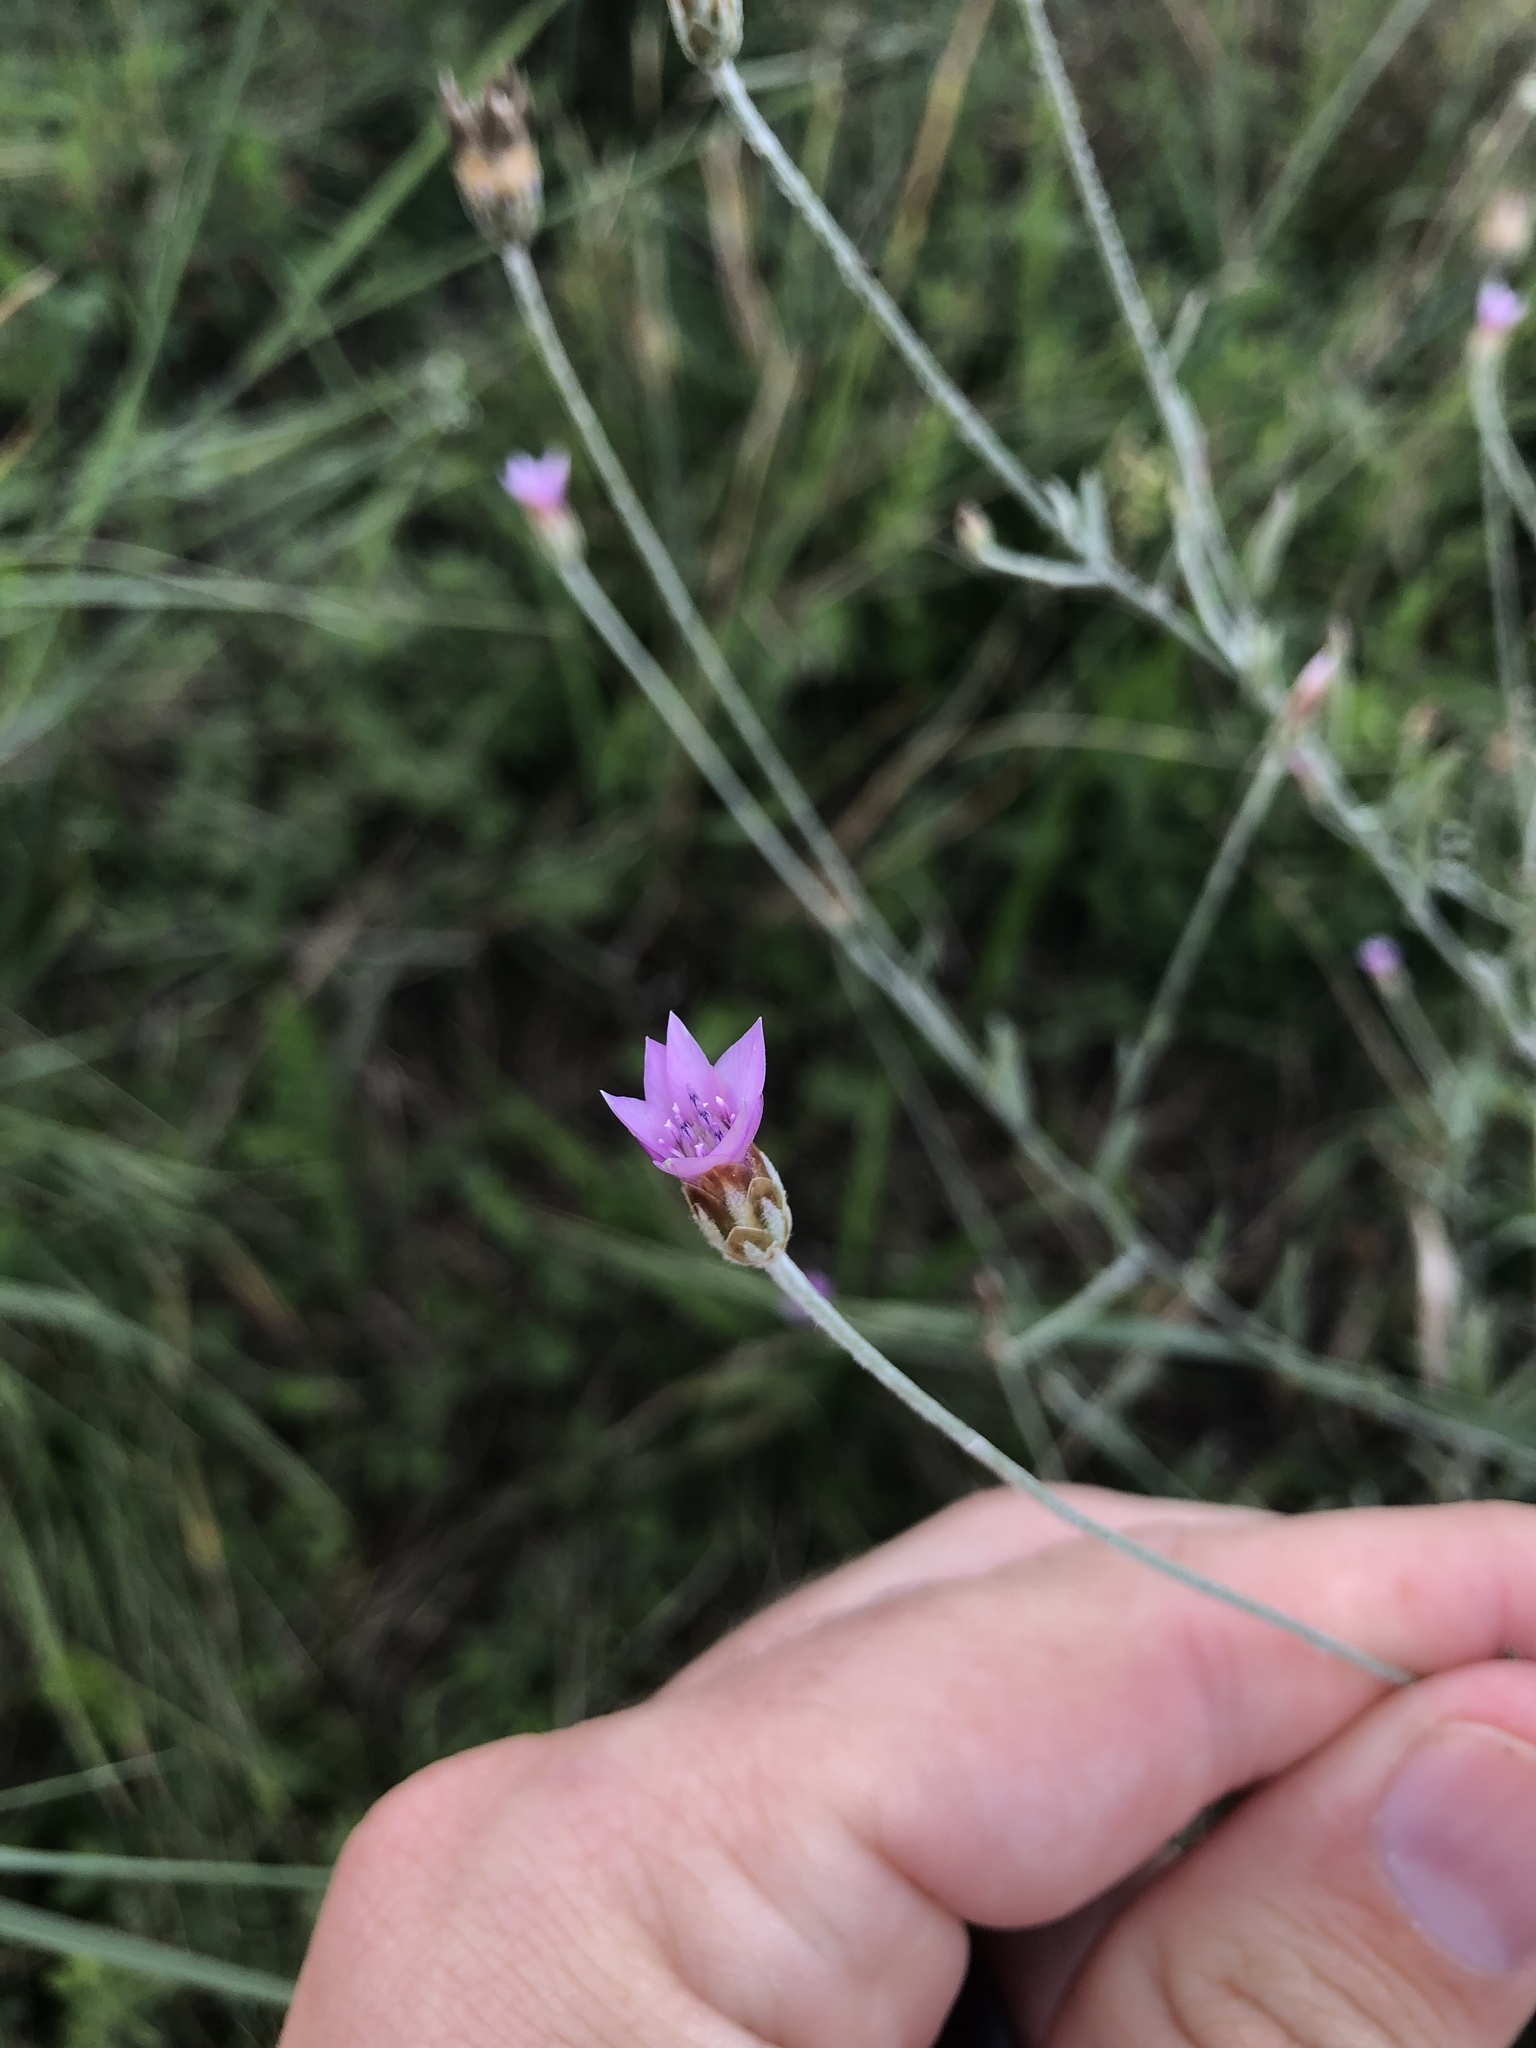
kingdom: Plantae
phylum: Tracheophyta
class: Magnoliopsida
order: Asterales
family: Asteraceae
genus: Xeranthemum
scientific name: Xeranthemum cylindraceum
